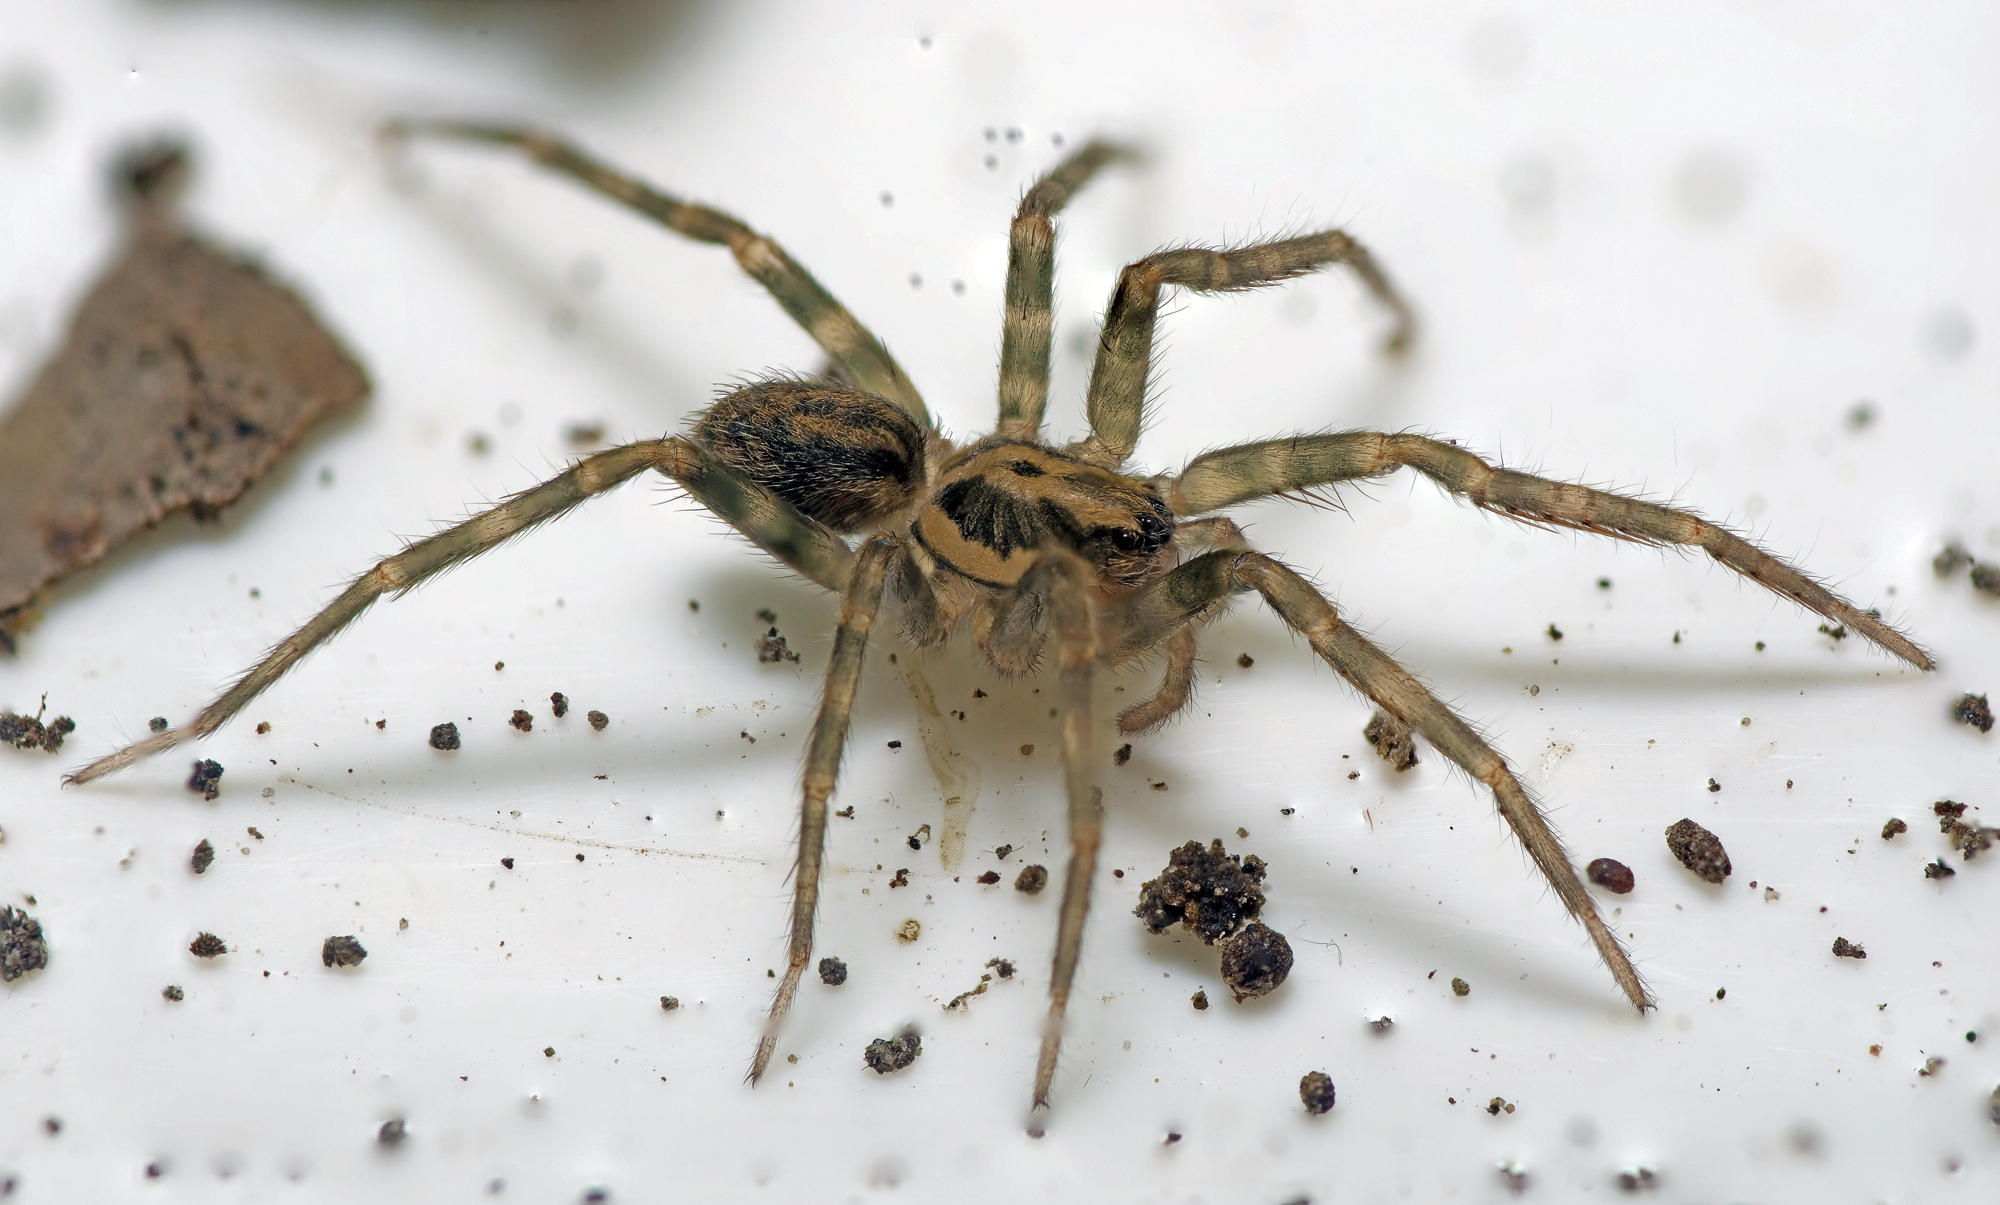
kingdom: Animalia
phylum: Arthropoda
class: Arachnida
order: Araneae
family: Zoropsidae
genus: Austrotengella
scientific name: Austrotengella hackerae
